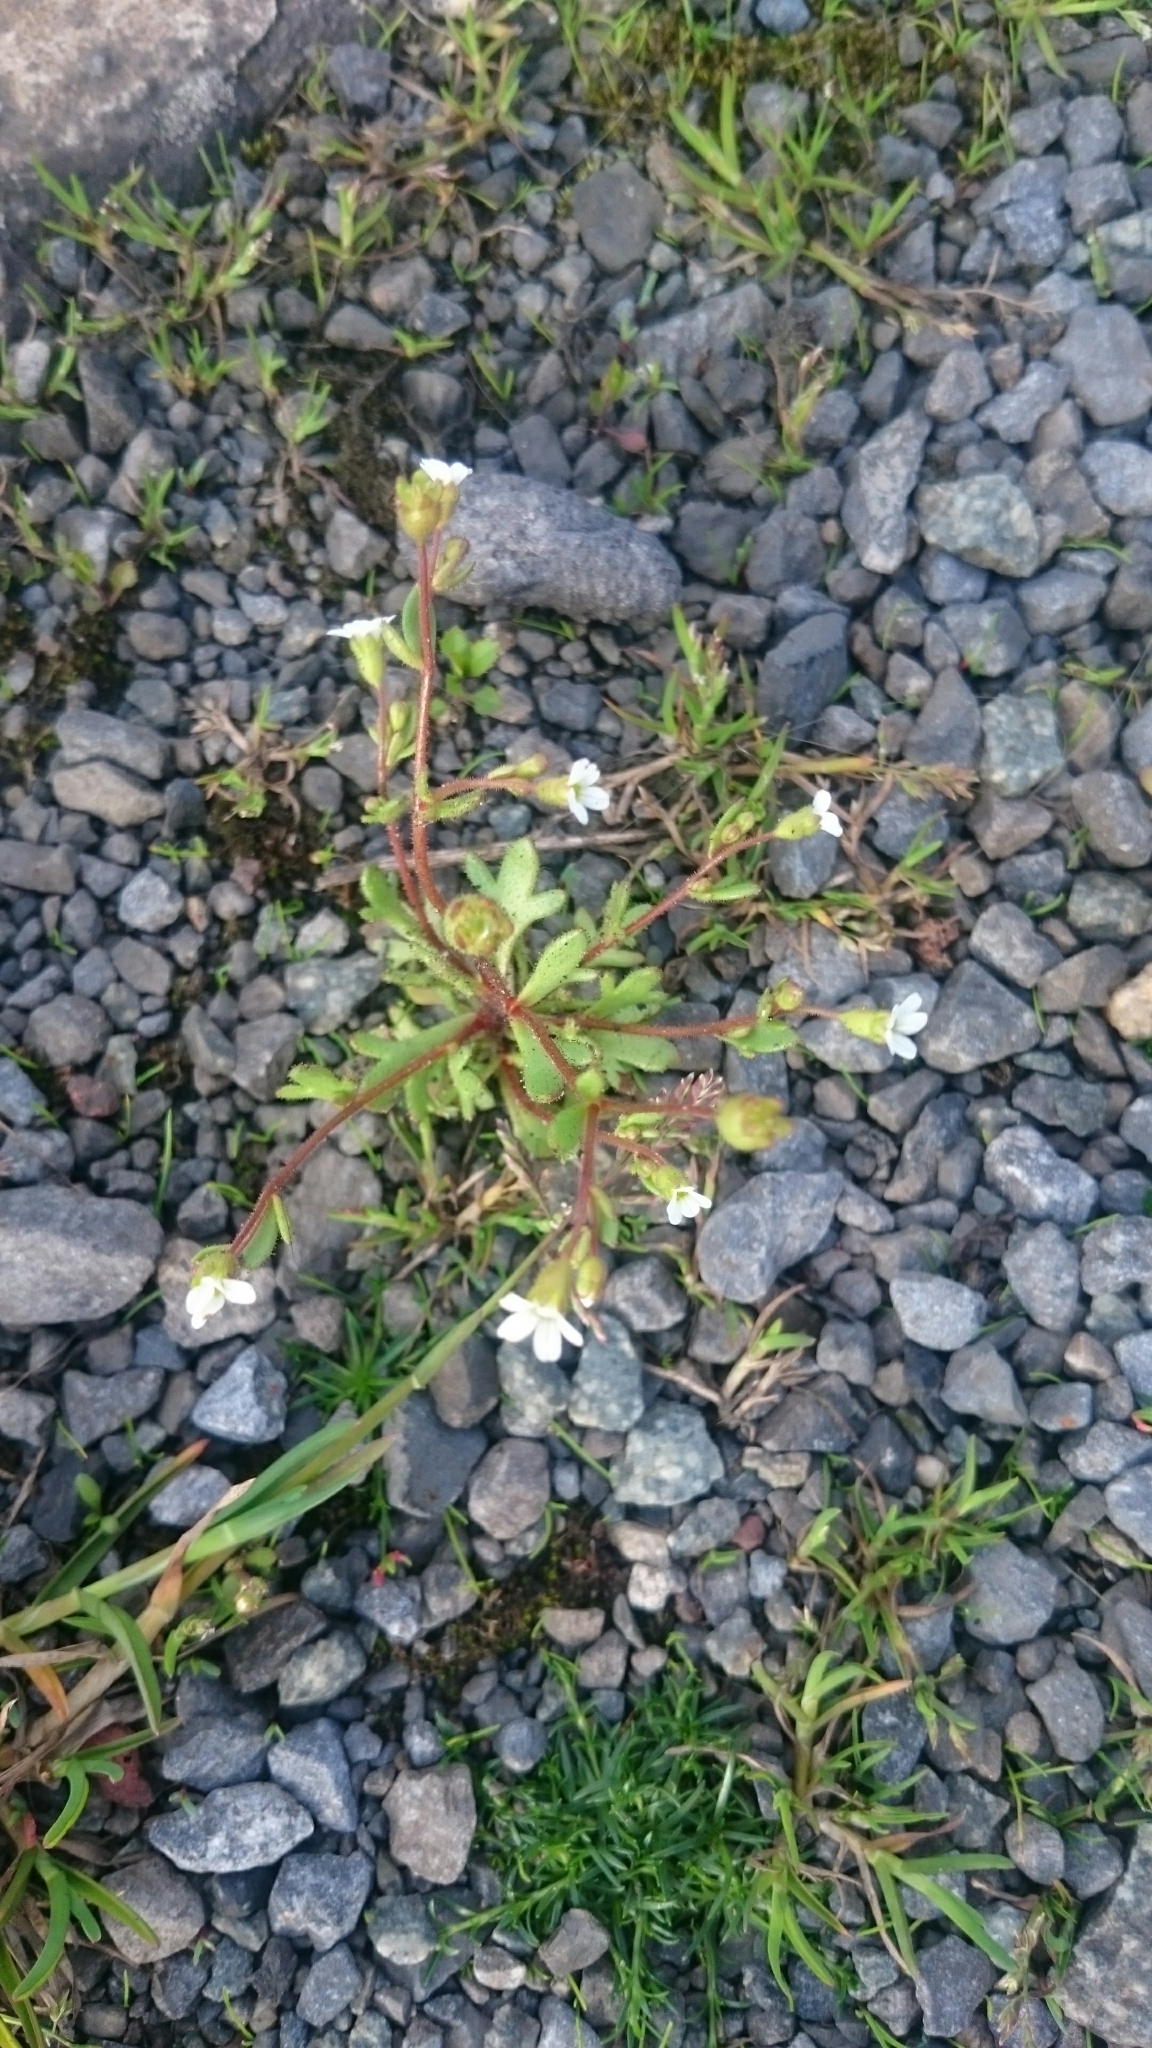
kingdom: Plantae
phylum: Tracheophyta
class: Magnoliopsida
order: Saxifragales
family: Saxifragaceae
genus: Saxifraga
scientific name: Saxifraga tridactylites
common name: Rue-leaved saxifrage
